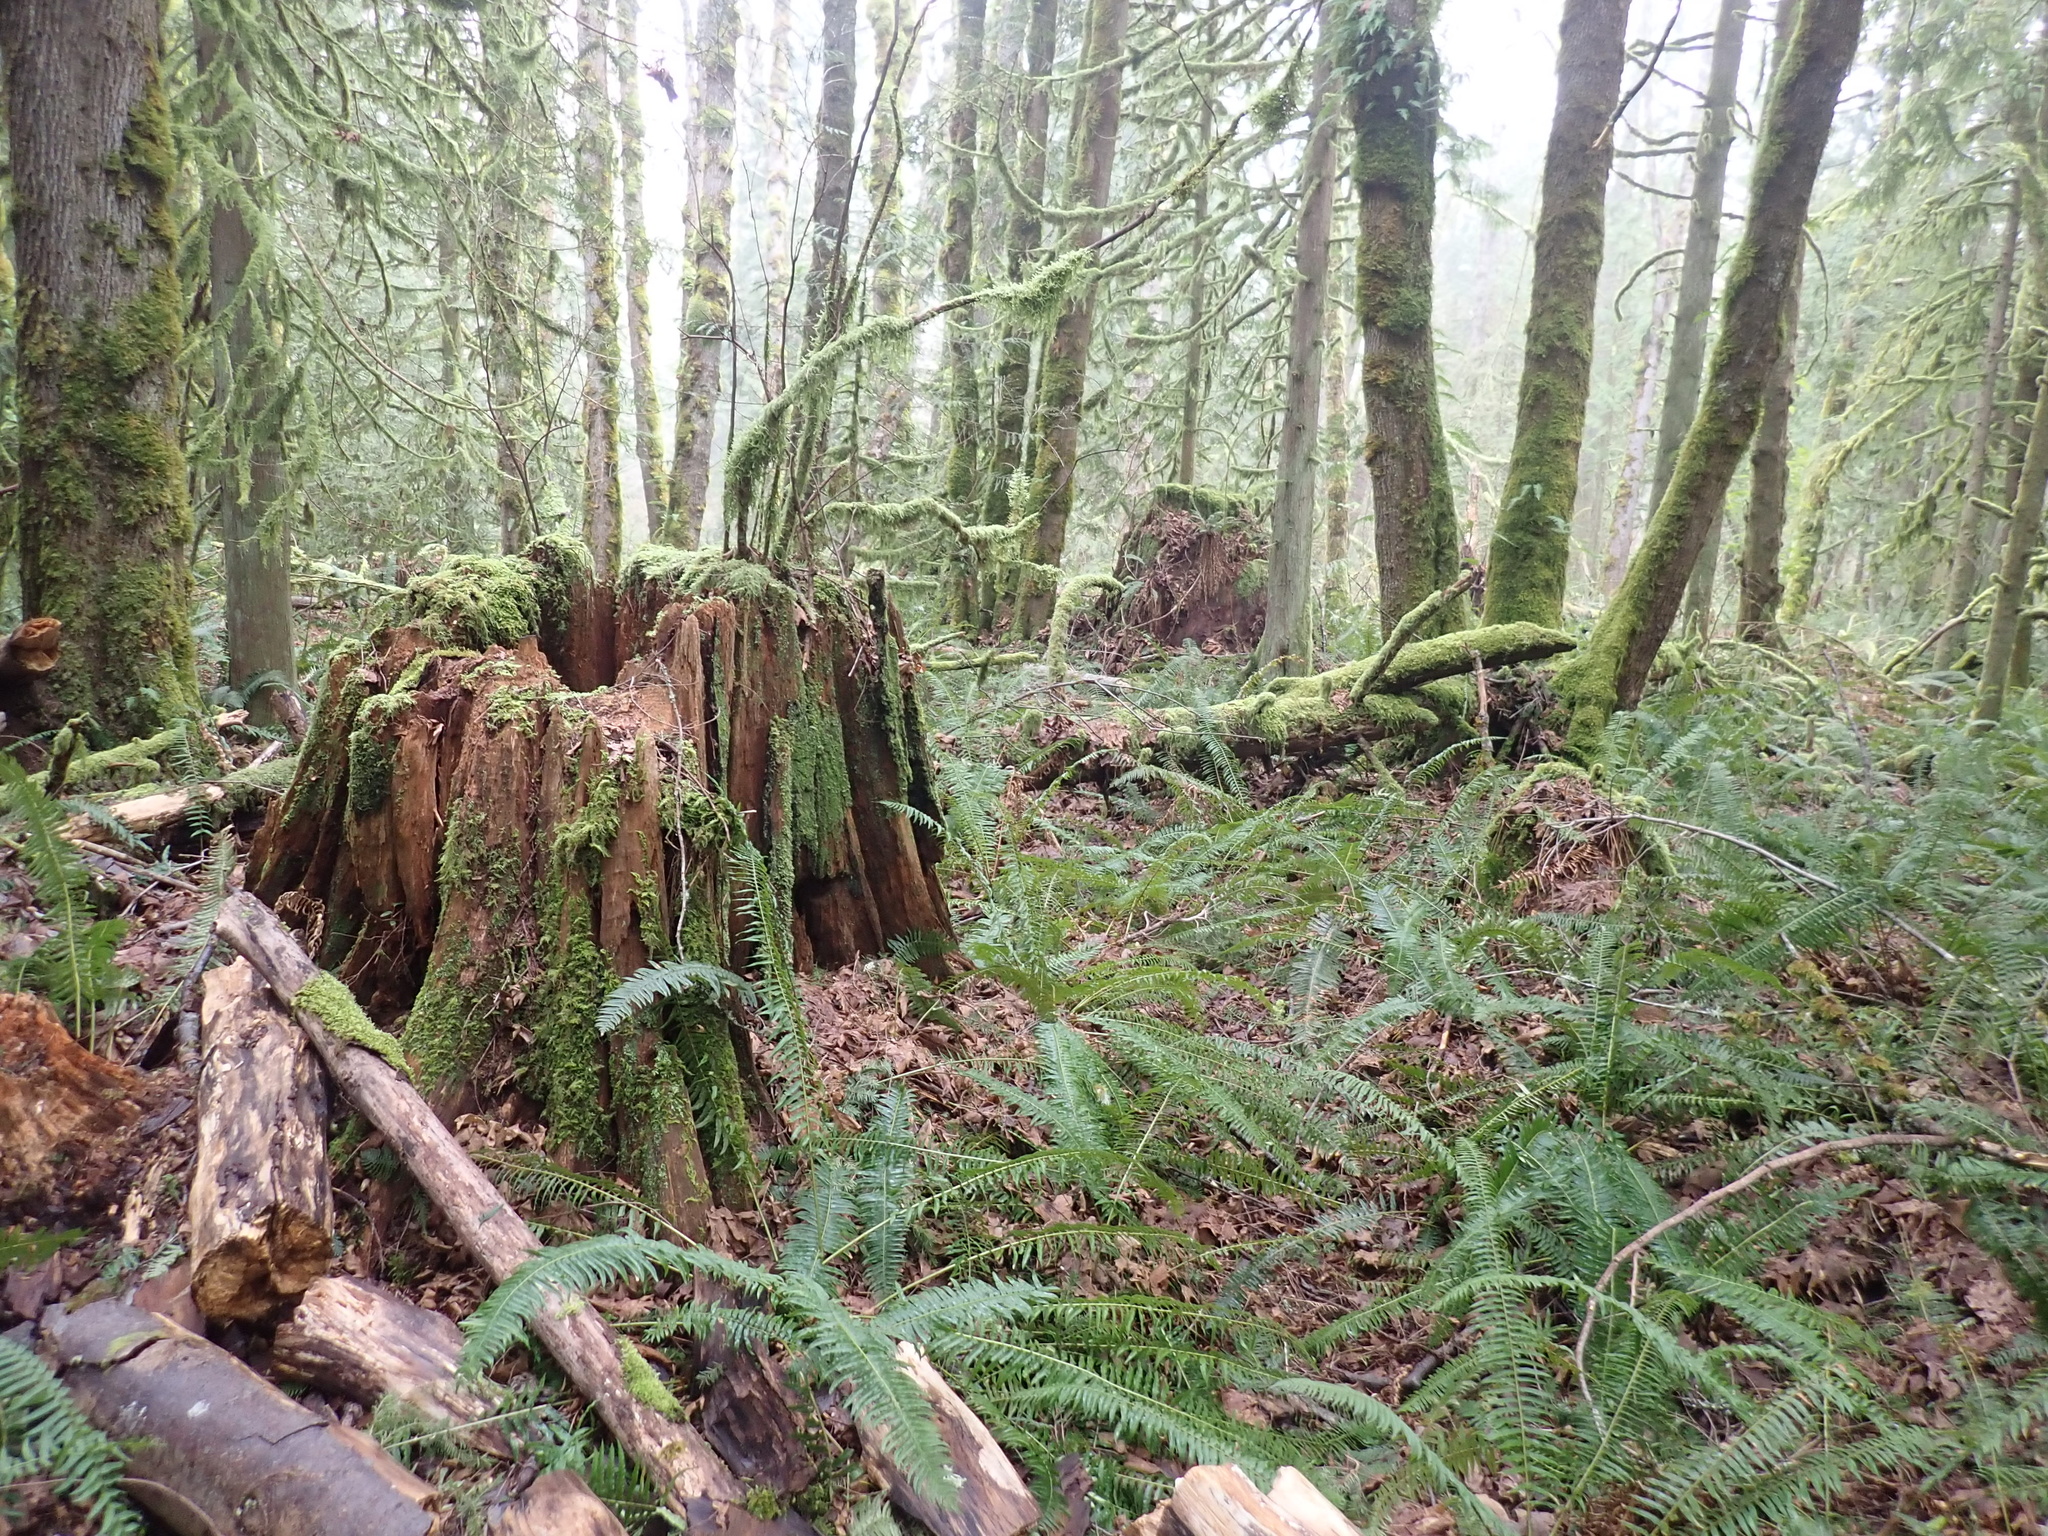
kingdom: Plantae
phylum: Tracheophyta
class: Pinopsida
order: Pinales
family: Cupressaceae
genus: Thuja
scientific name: Thuja plicata
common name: Western red-cedar
